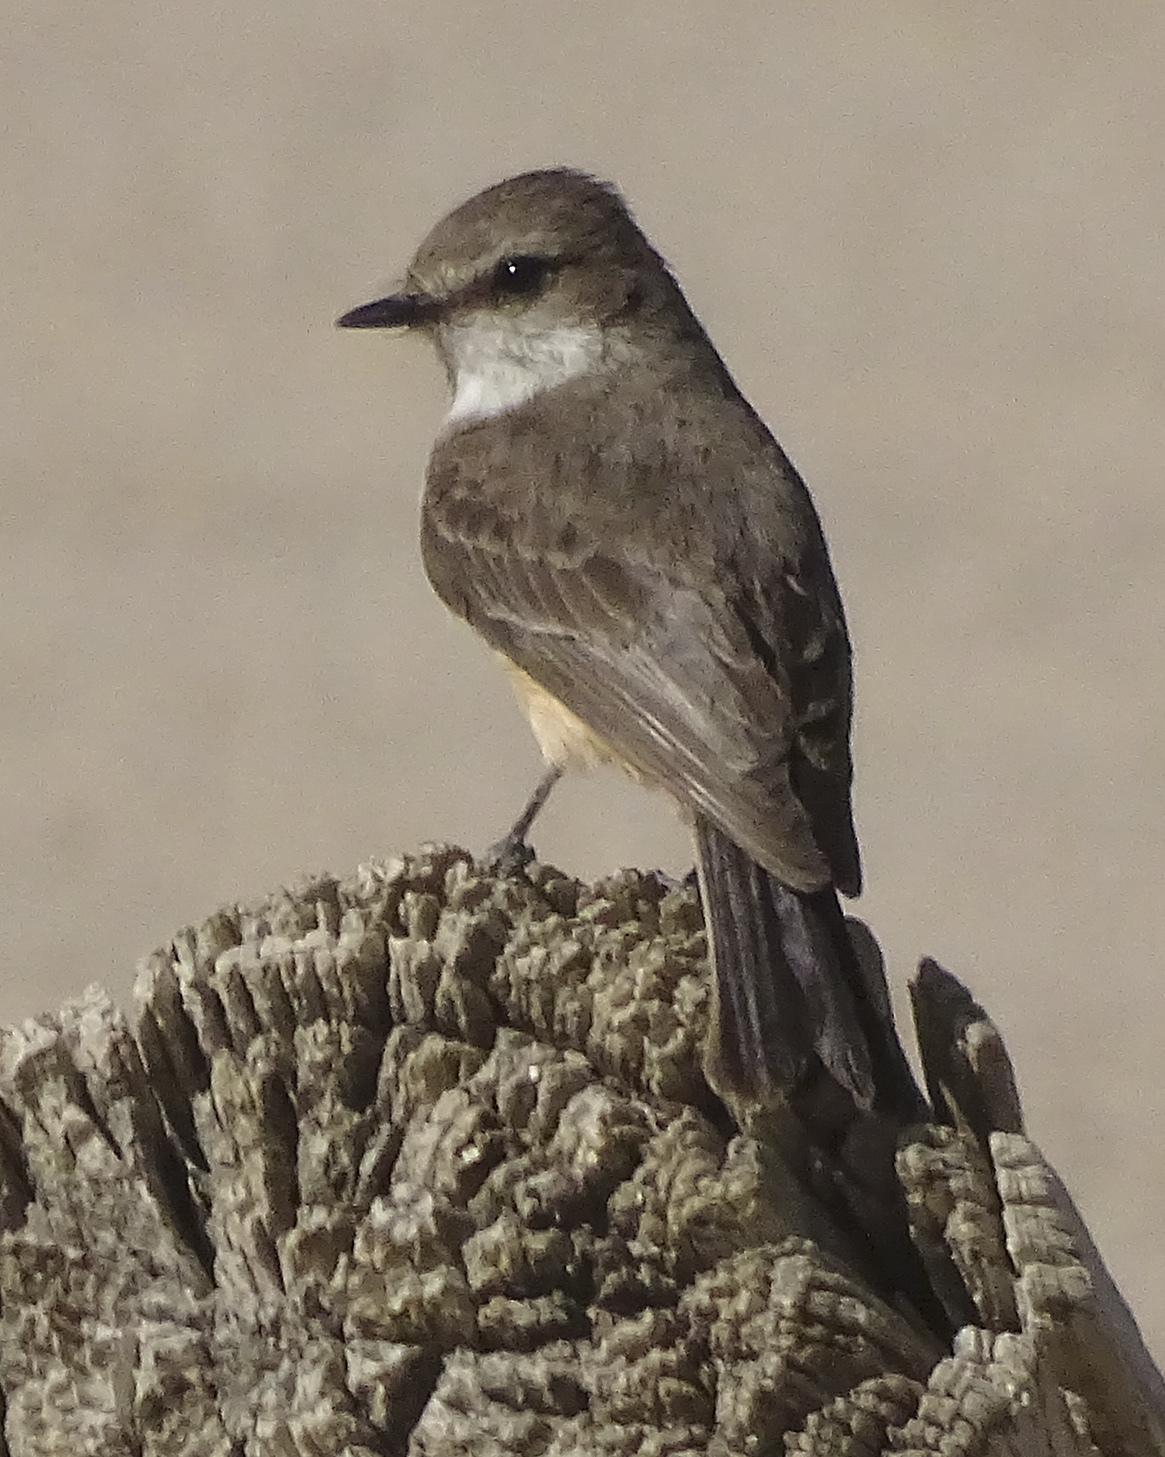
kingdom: Animalia
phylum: Chordata
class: Aves
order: Passeriformes
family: Tyrannidae
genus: Pyrocephalus
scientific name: Pyrocephalus rubinus
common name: Vermilion flycatcher
